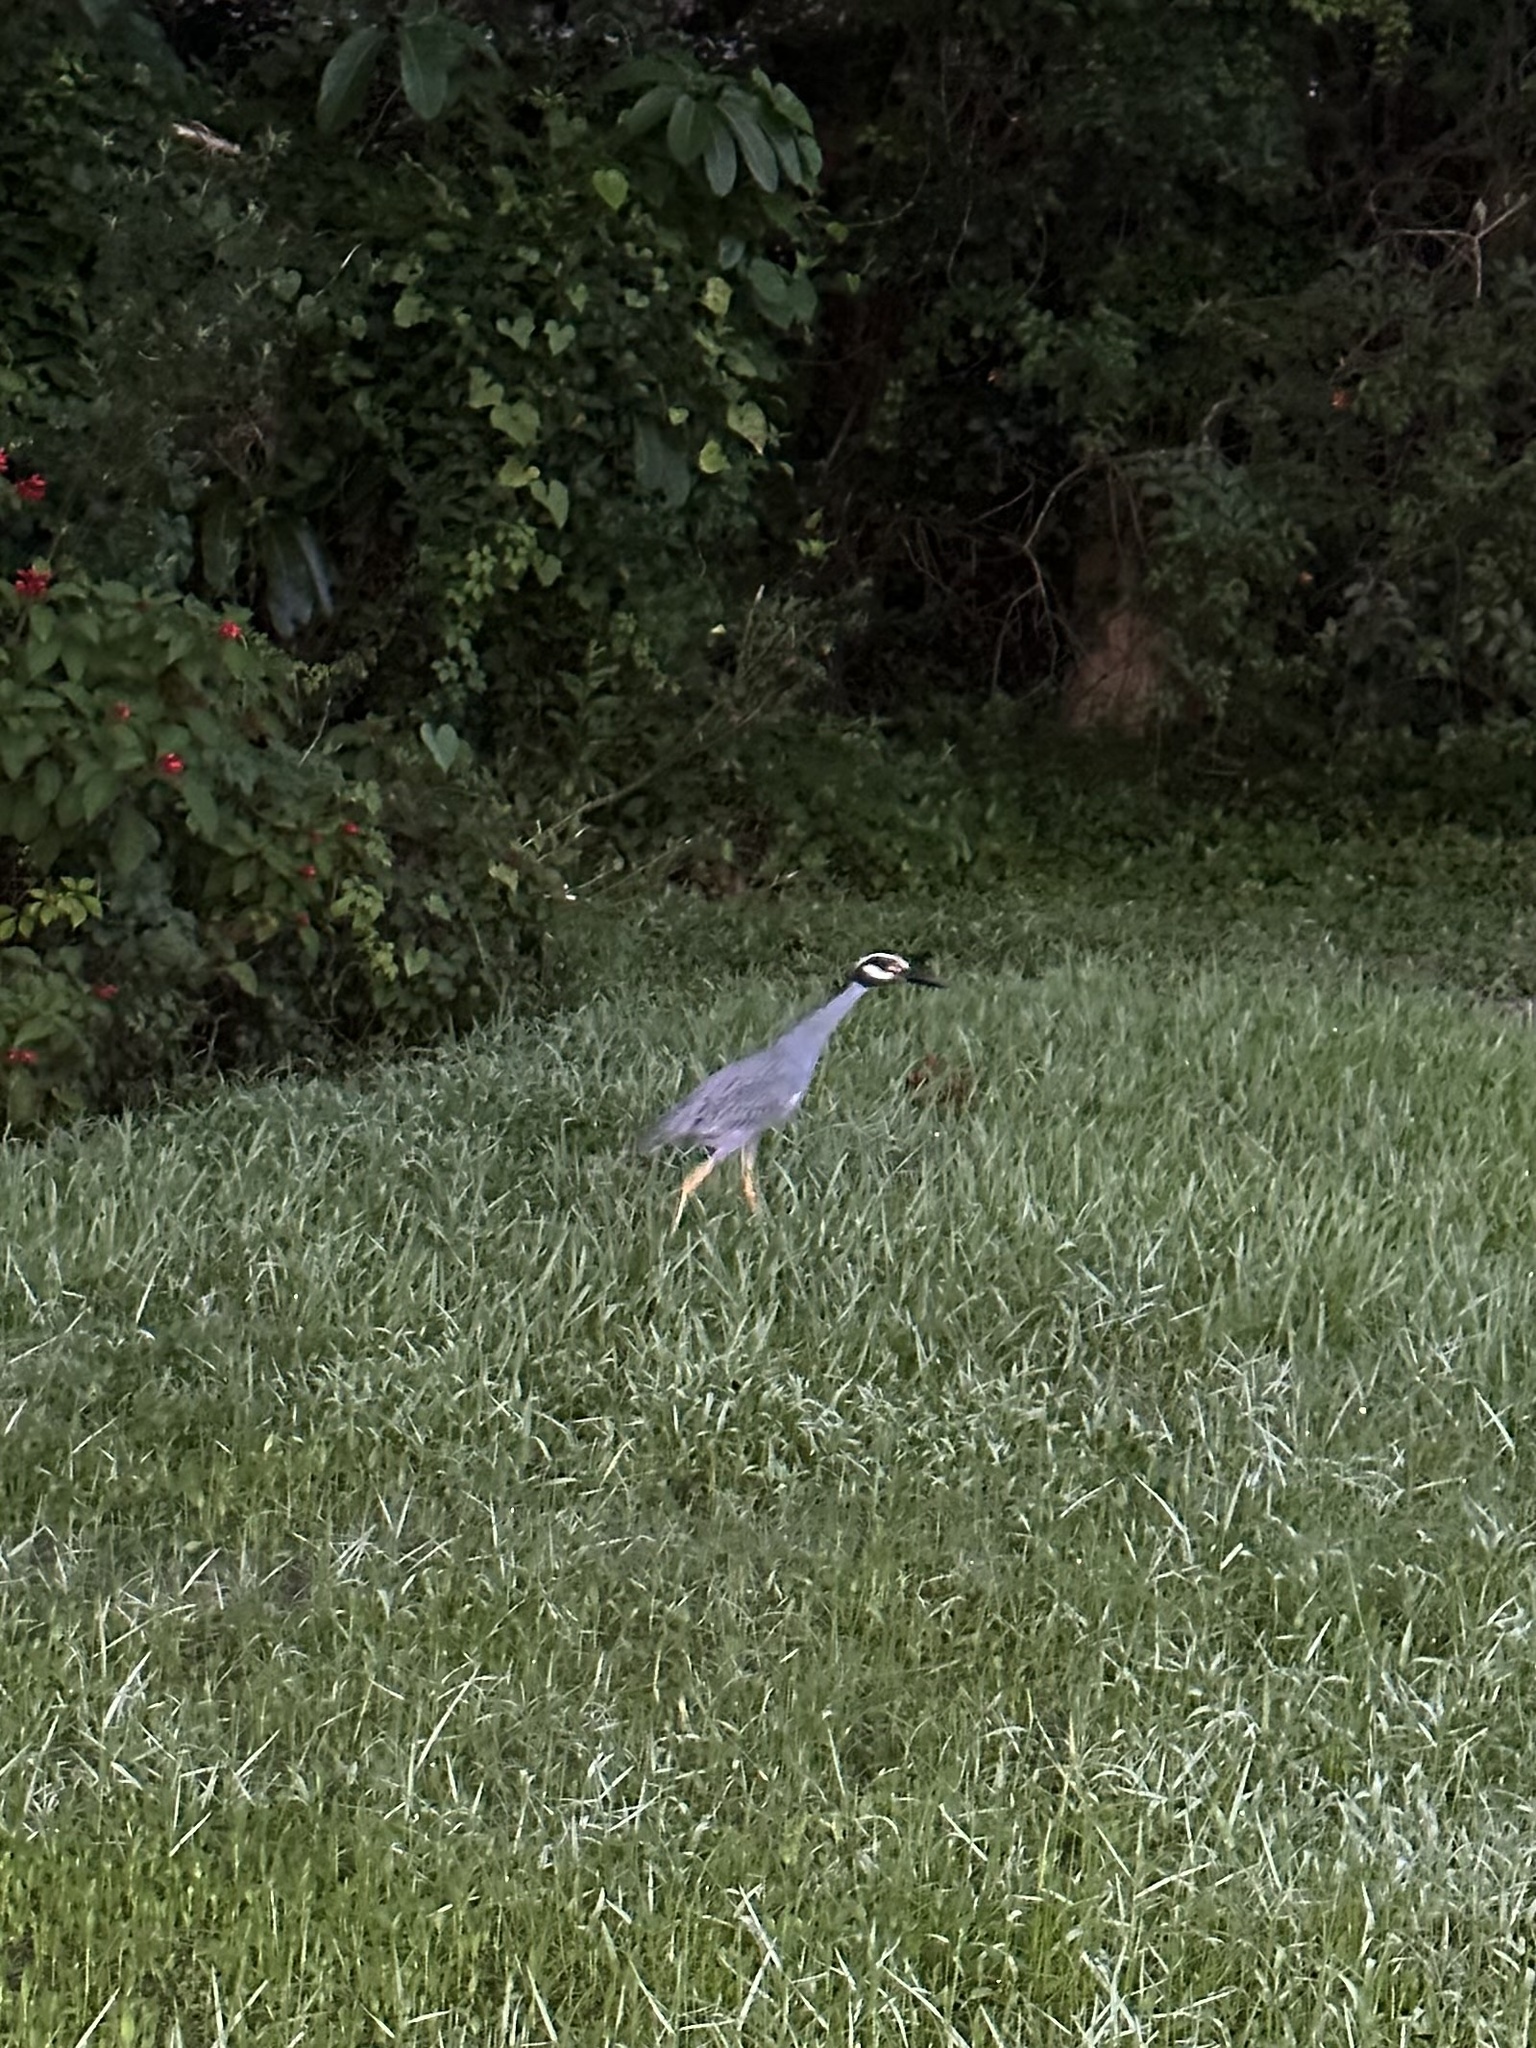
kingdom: Animalia
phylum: Chordata
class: Aves
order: Pelecaniformes
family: Ardeidae
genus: Nyctanassa
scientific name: Nyctanassa violacea
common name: Yellow-crowned night heron
